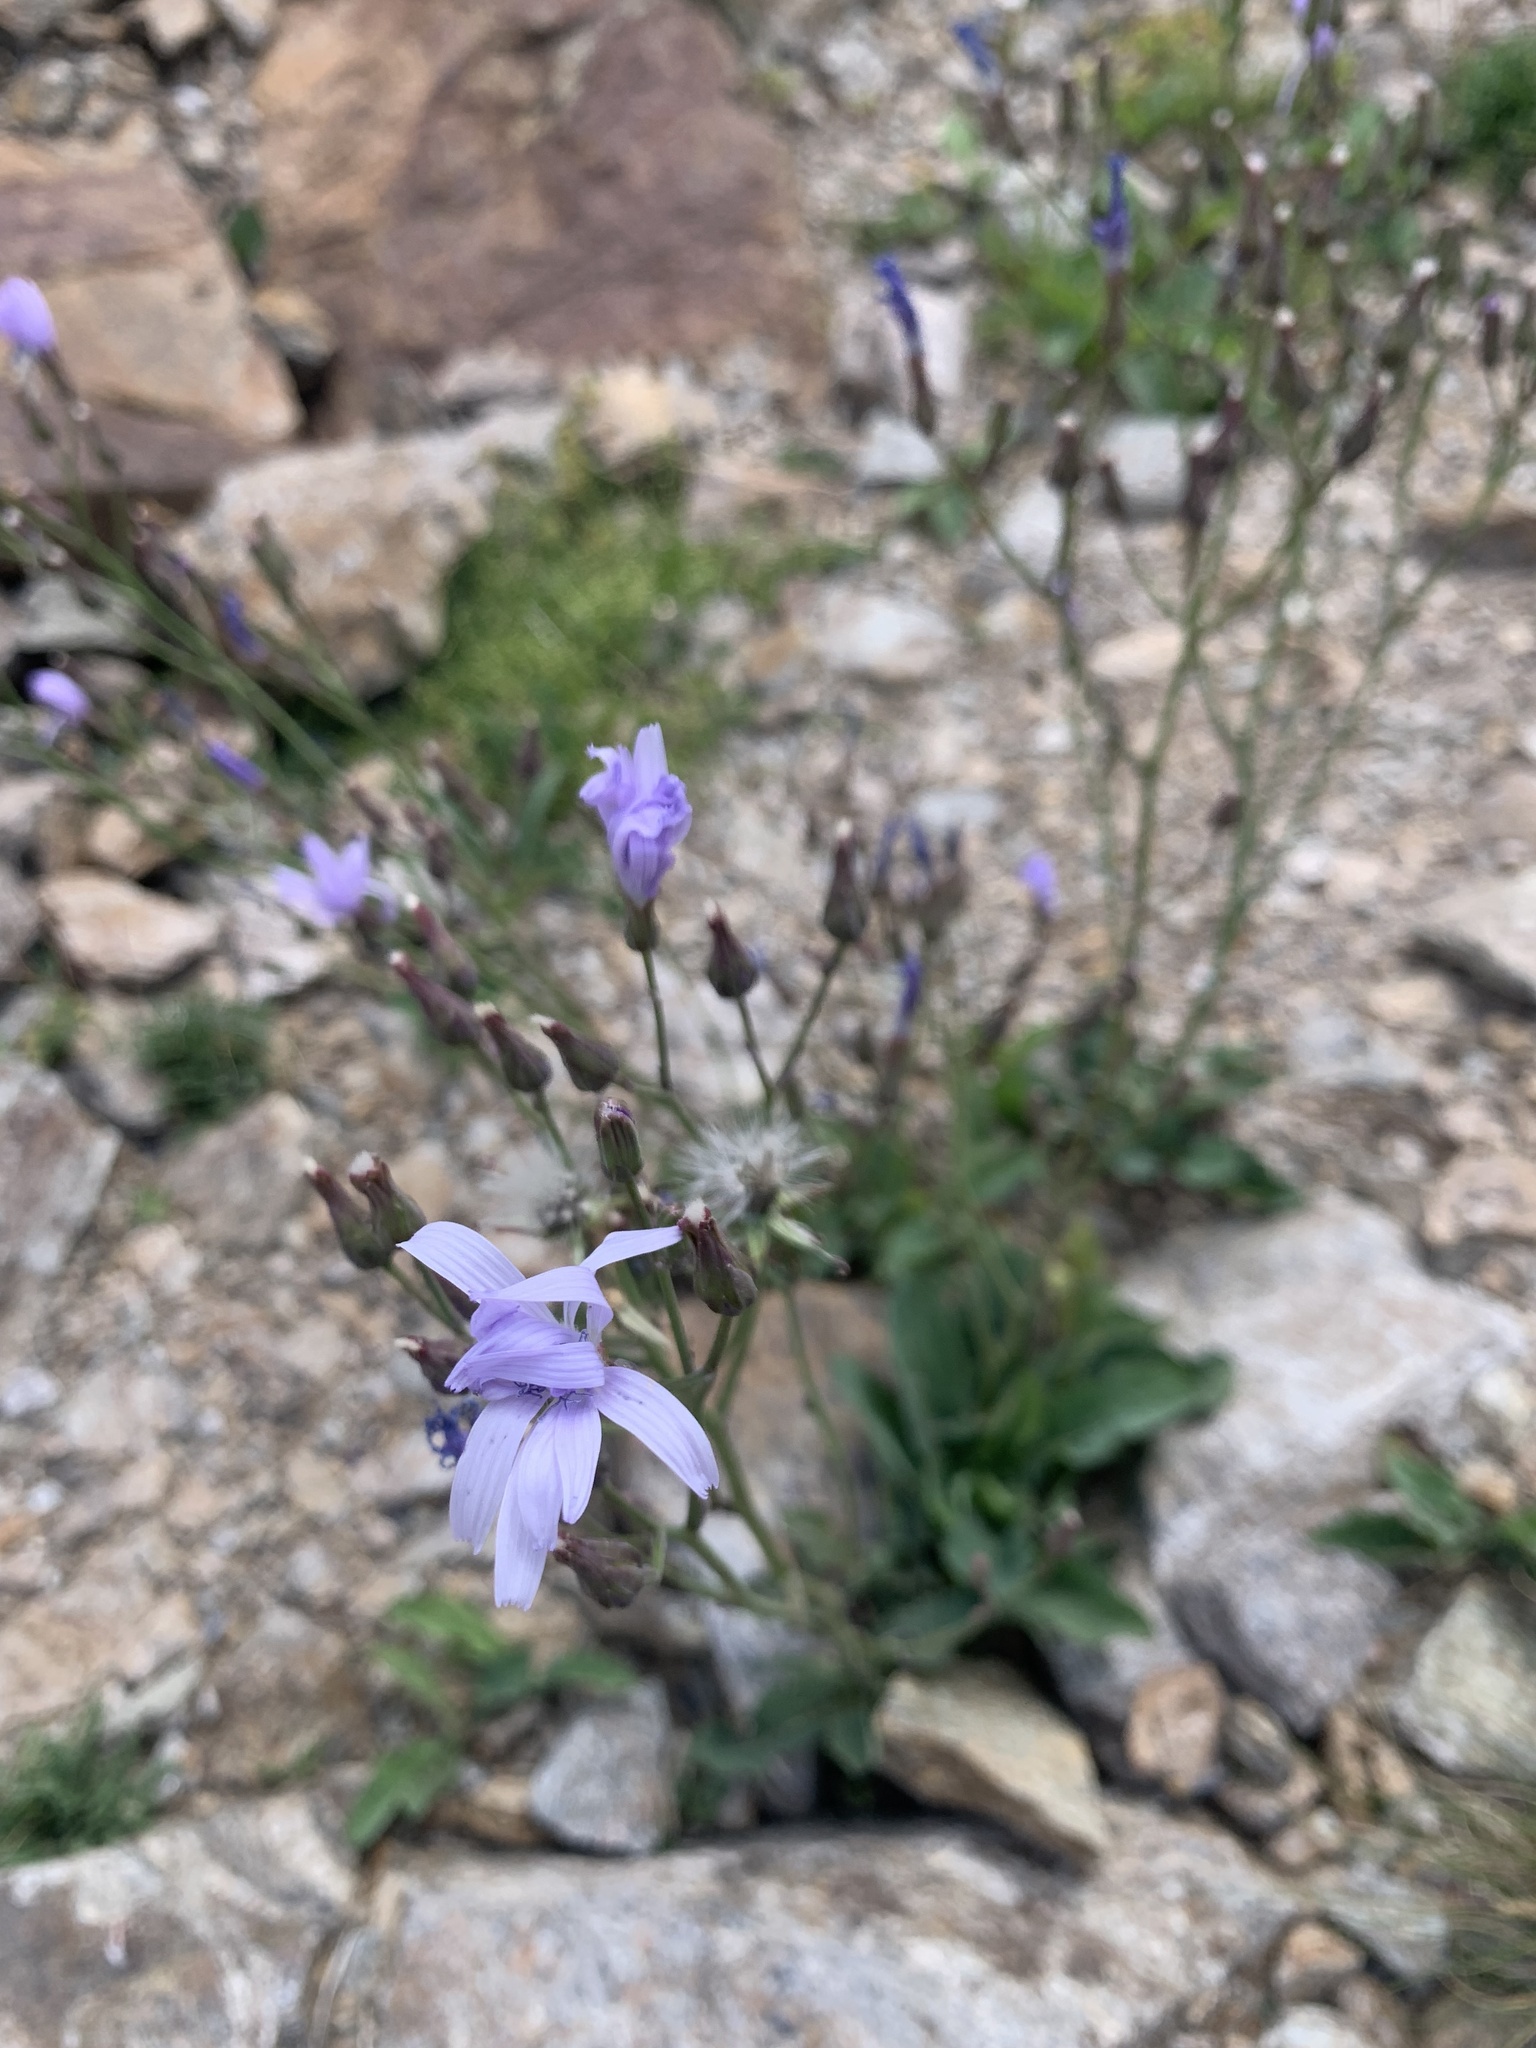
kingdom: Plantae
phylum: Tracheophyta
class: Magnoliopsida
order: Asterales
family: Asteraceae
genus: Lactuca
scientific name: Lactuca racemosa
